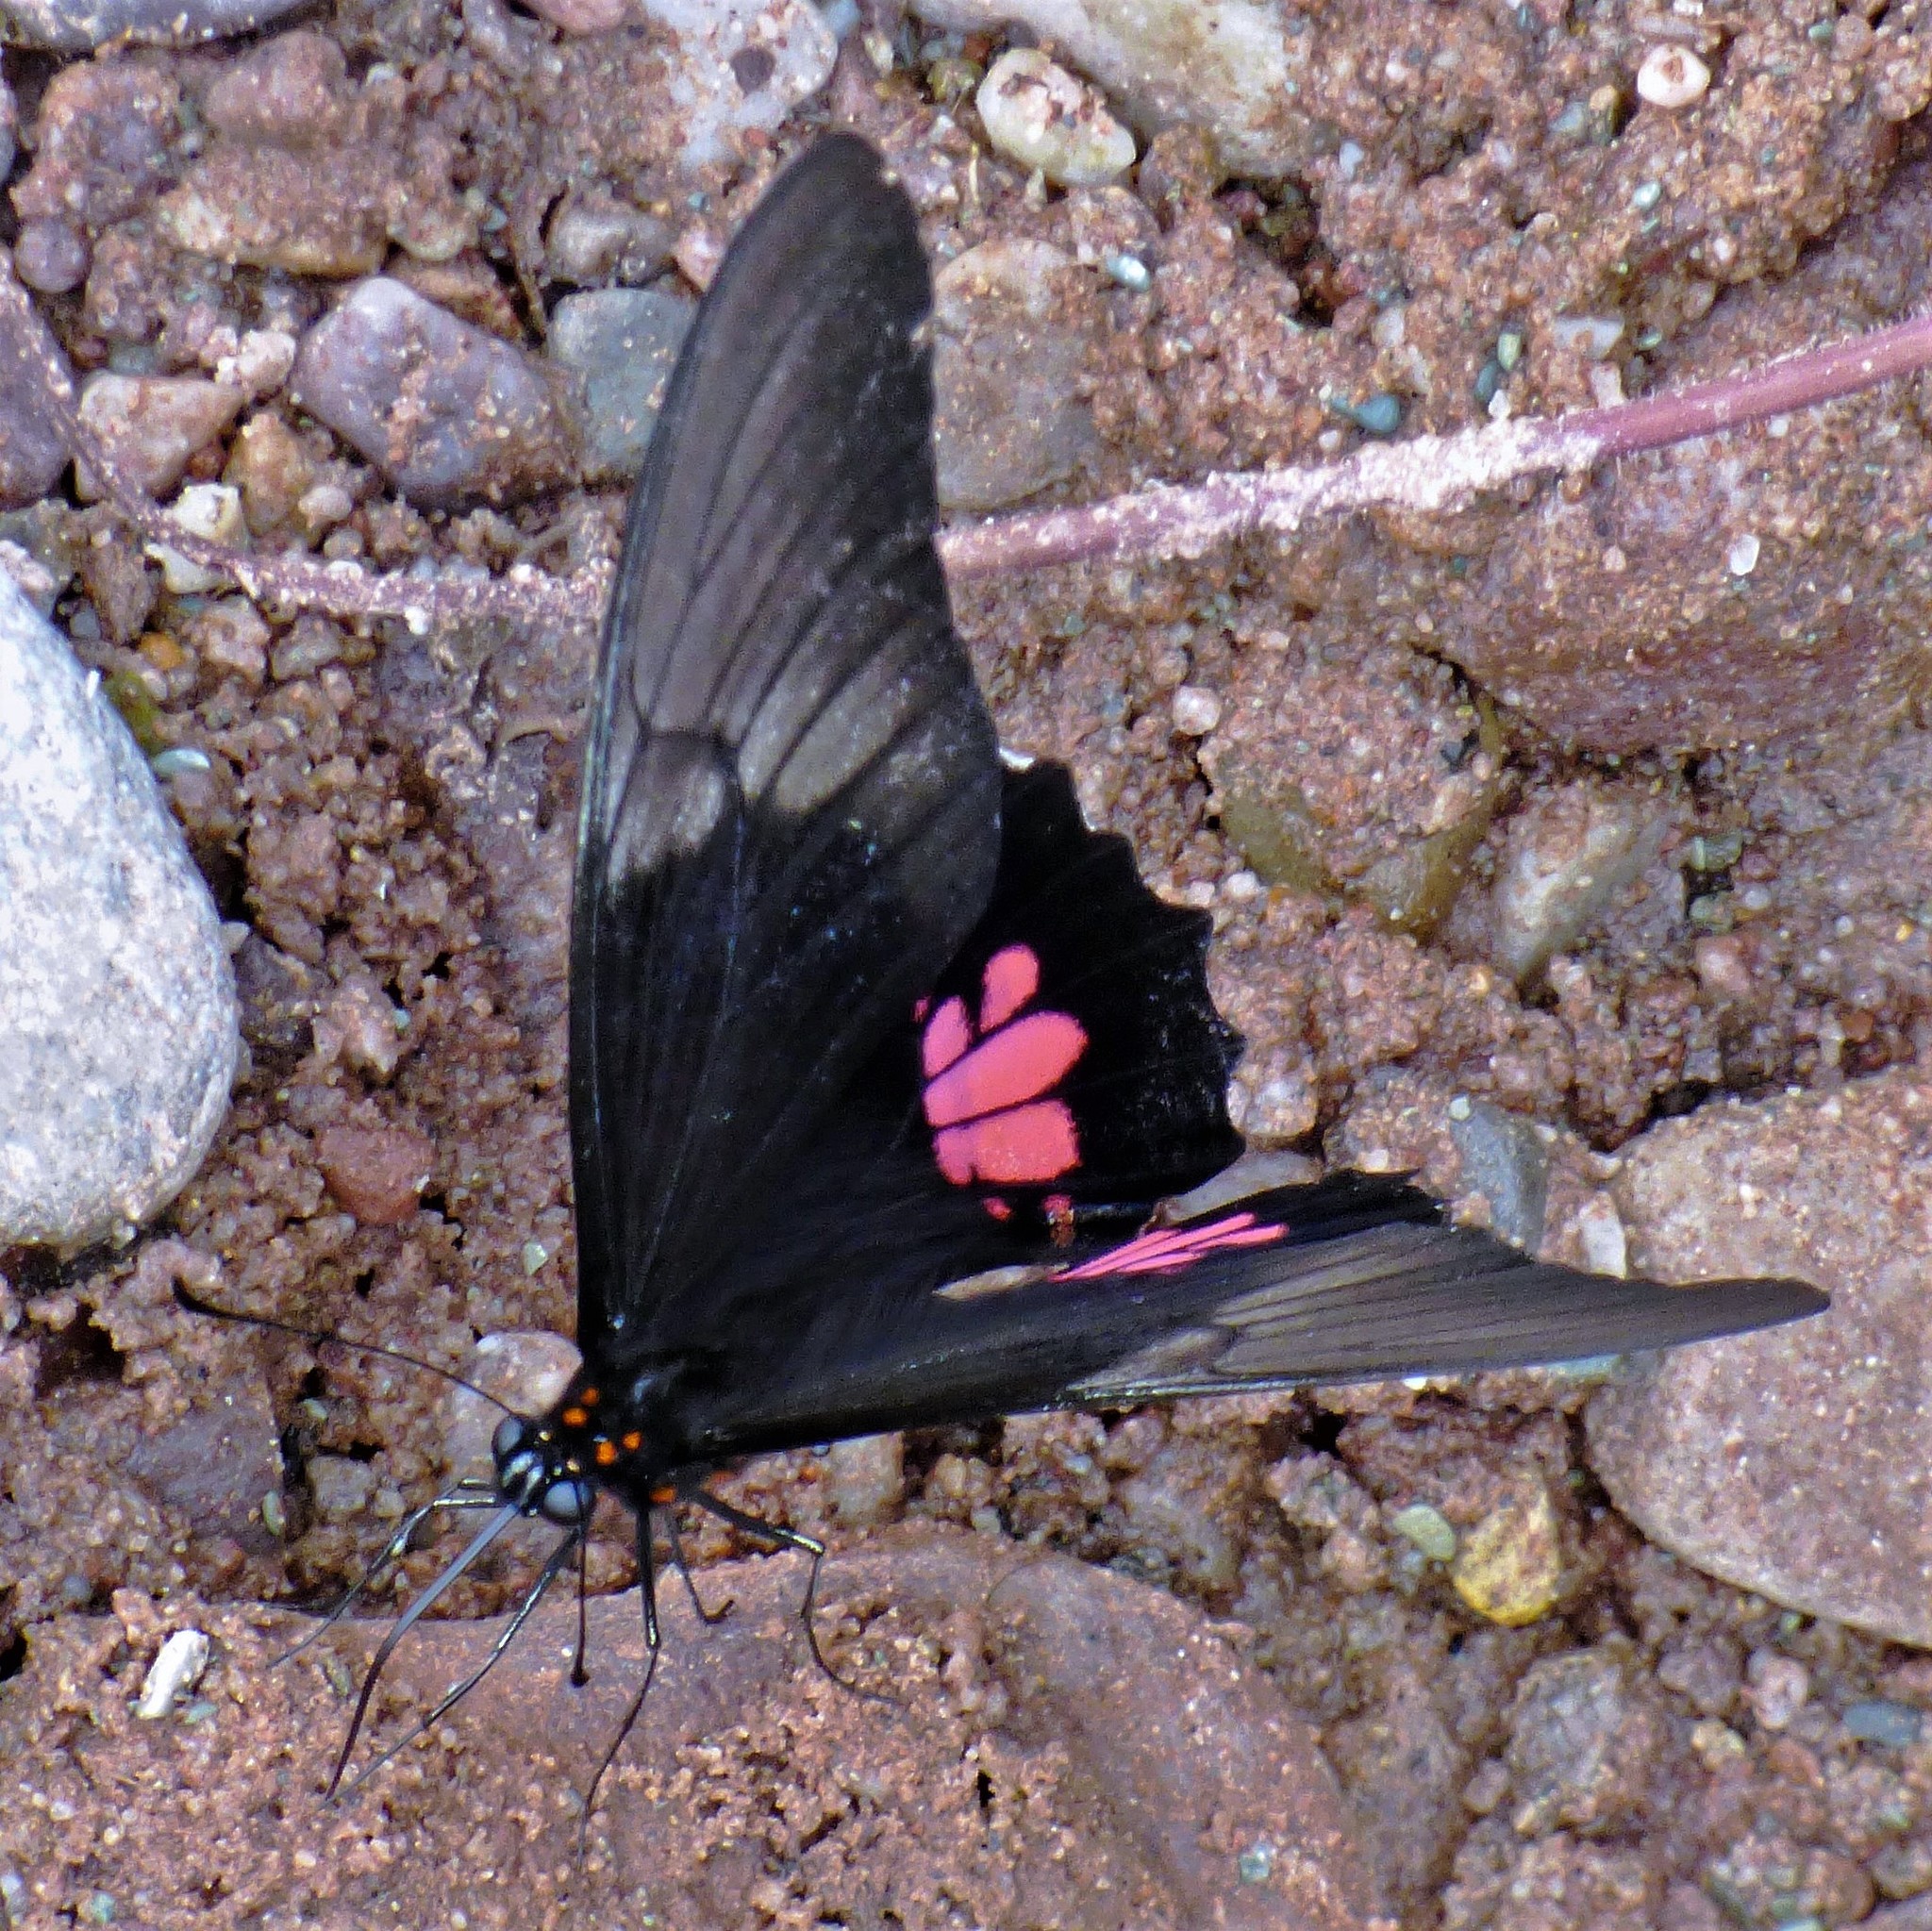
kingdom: Animalia
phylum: Arthropoda
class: Insecta
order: Lepidoptera
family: Papilionidae
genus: Papilio
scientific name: Papilio anchisiades
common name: Idaes swallowtail
